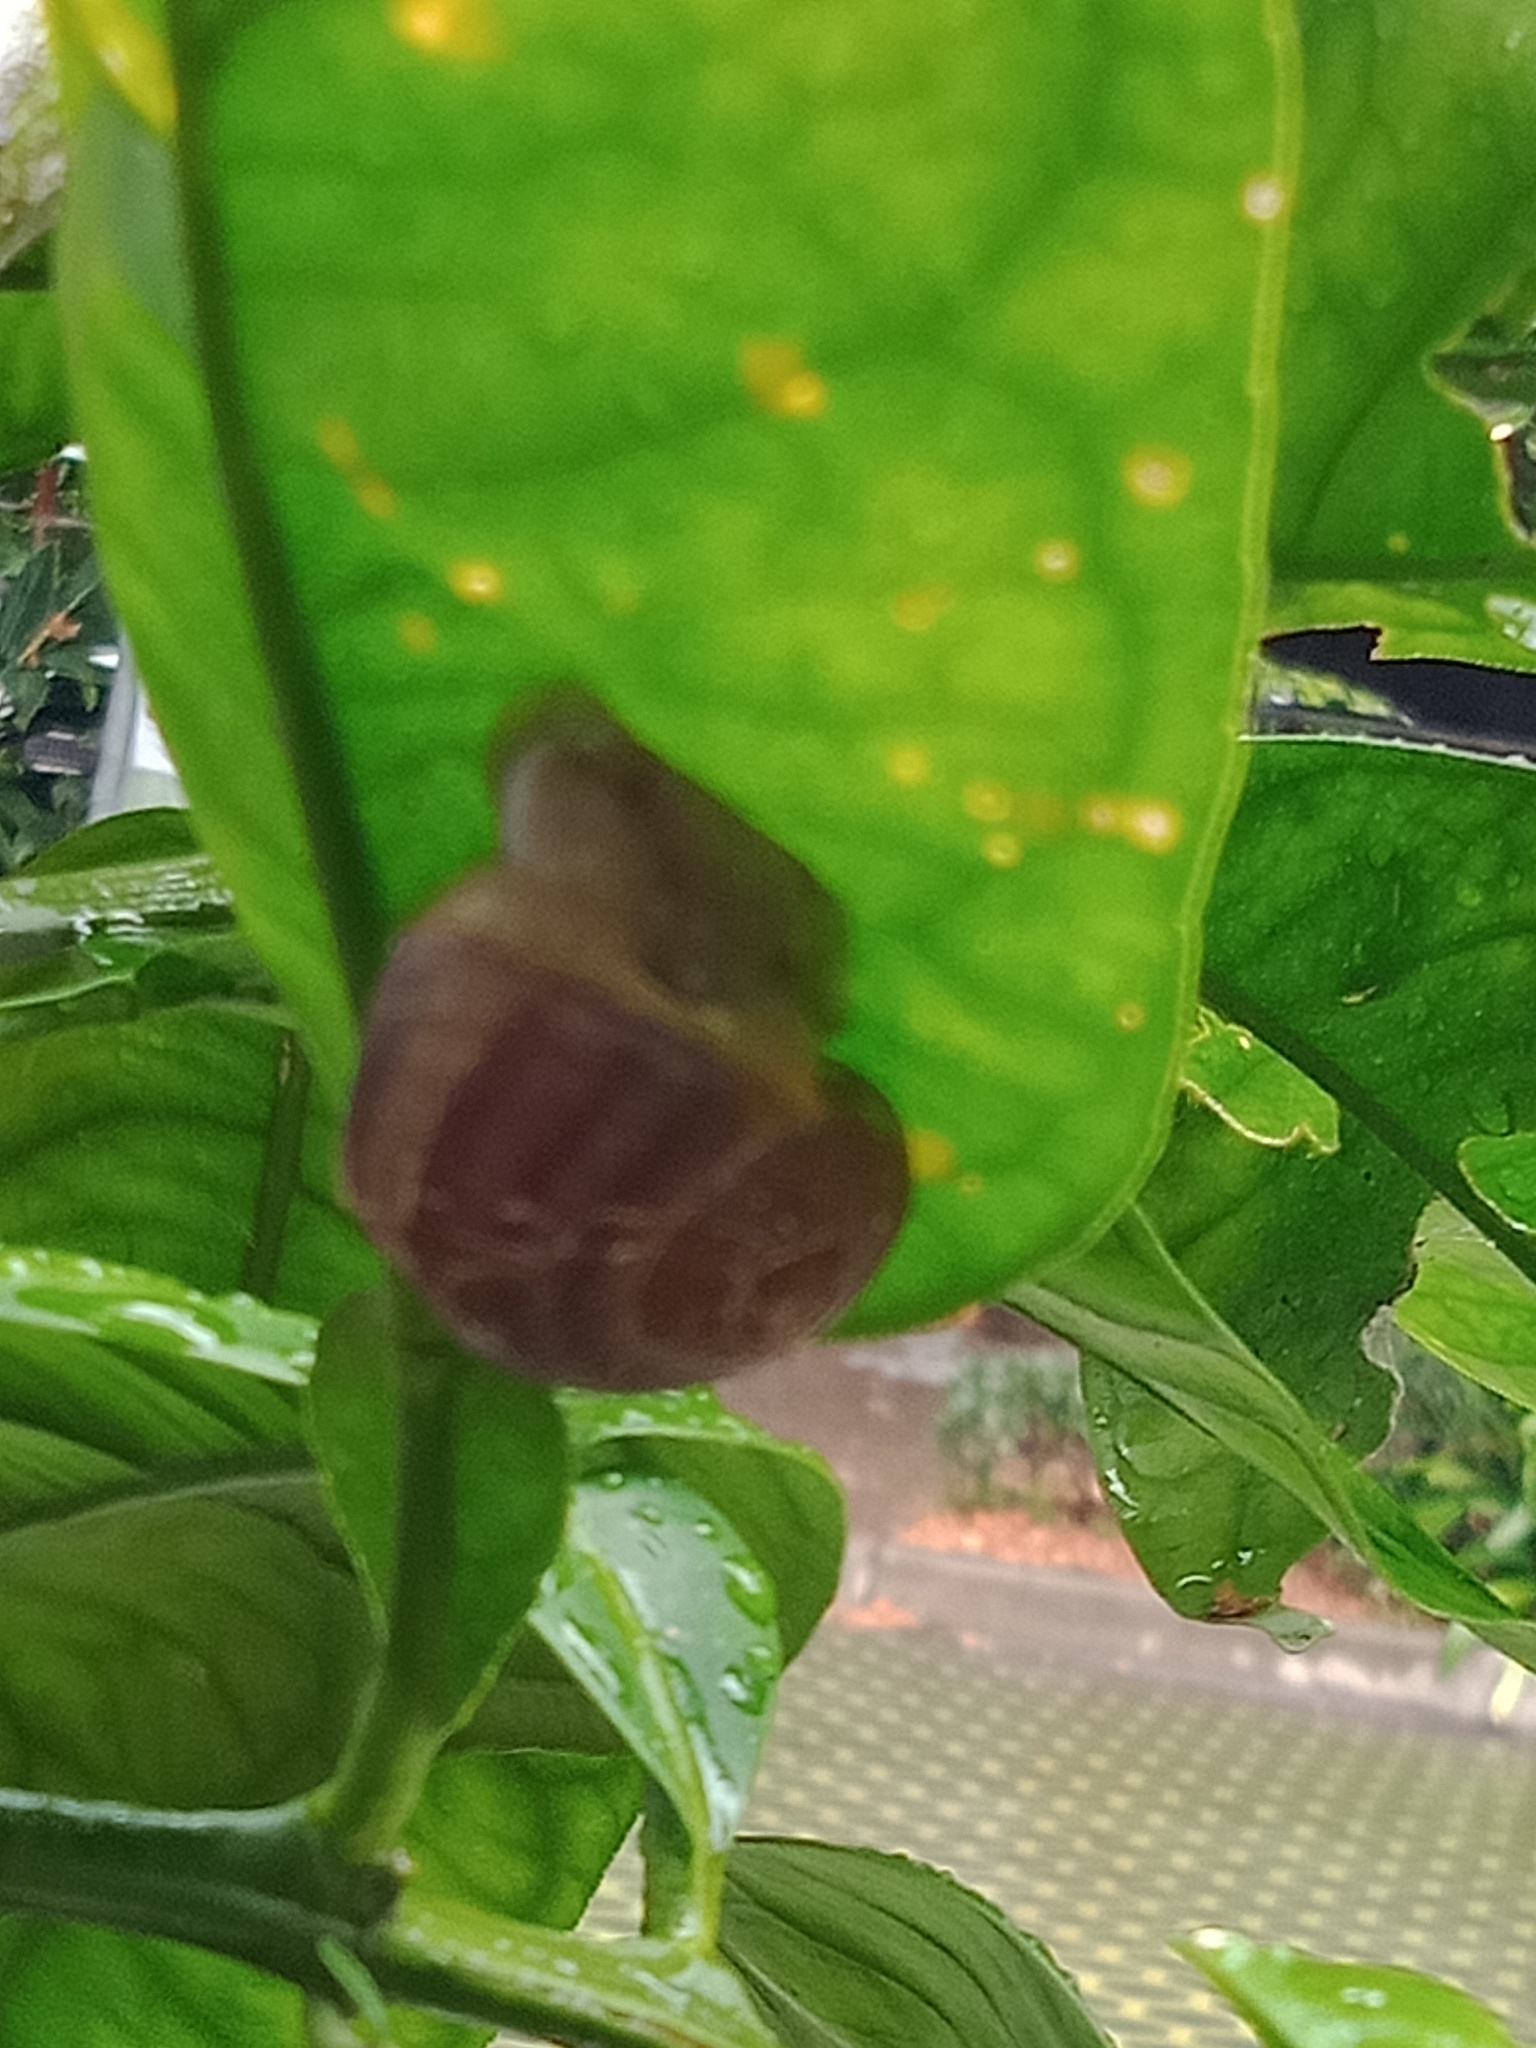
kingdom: Animalia
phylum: Mollusca
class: Gastropoda
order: Stylommatophora
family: Helicidae
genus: Cornu
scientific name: Cornu aspersum
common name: Brown garden snail
